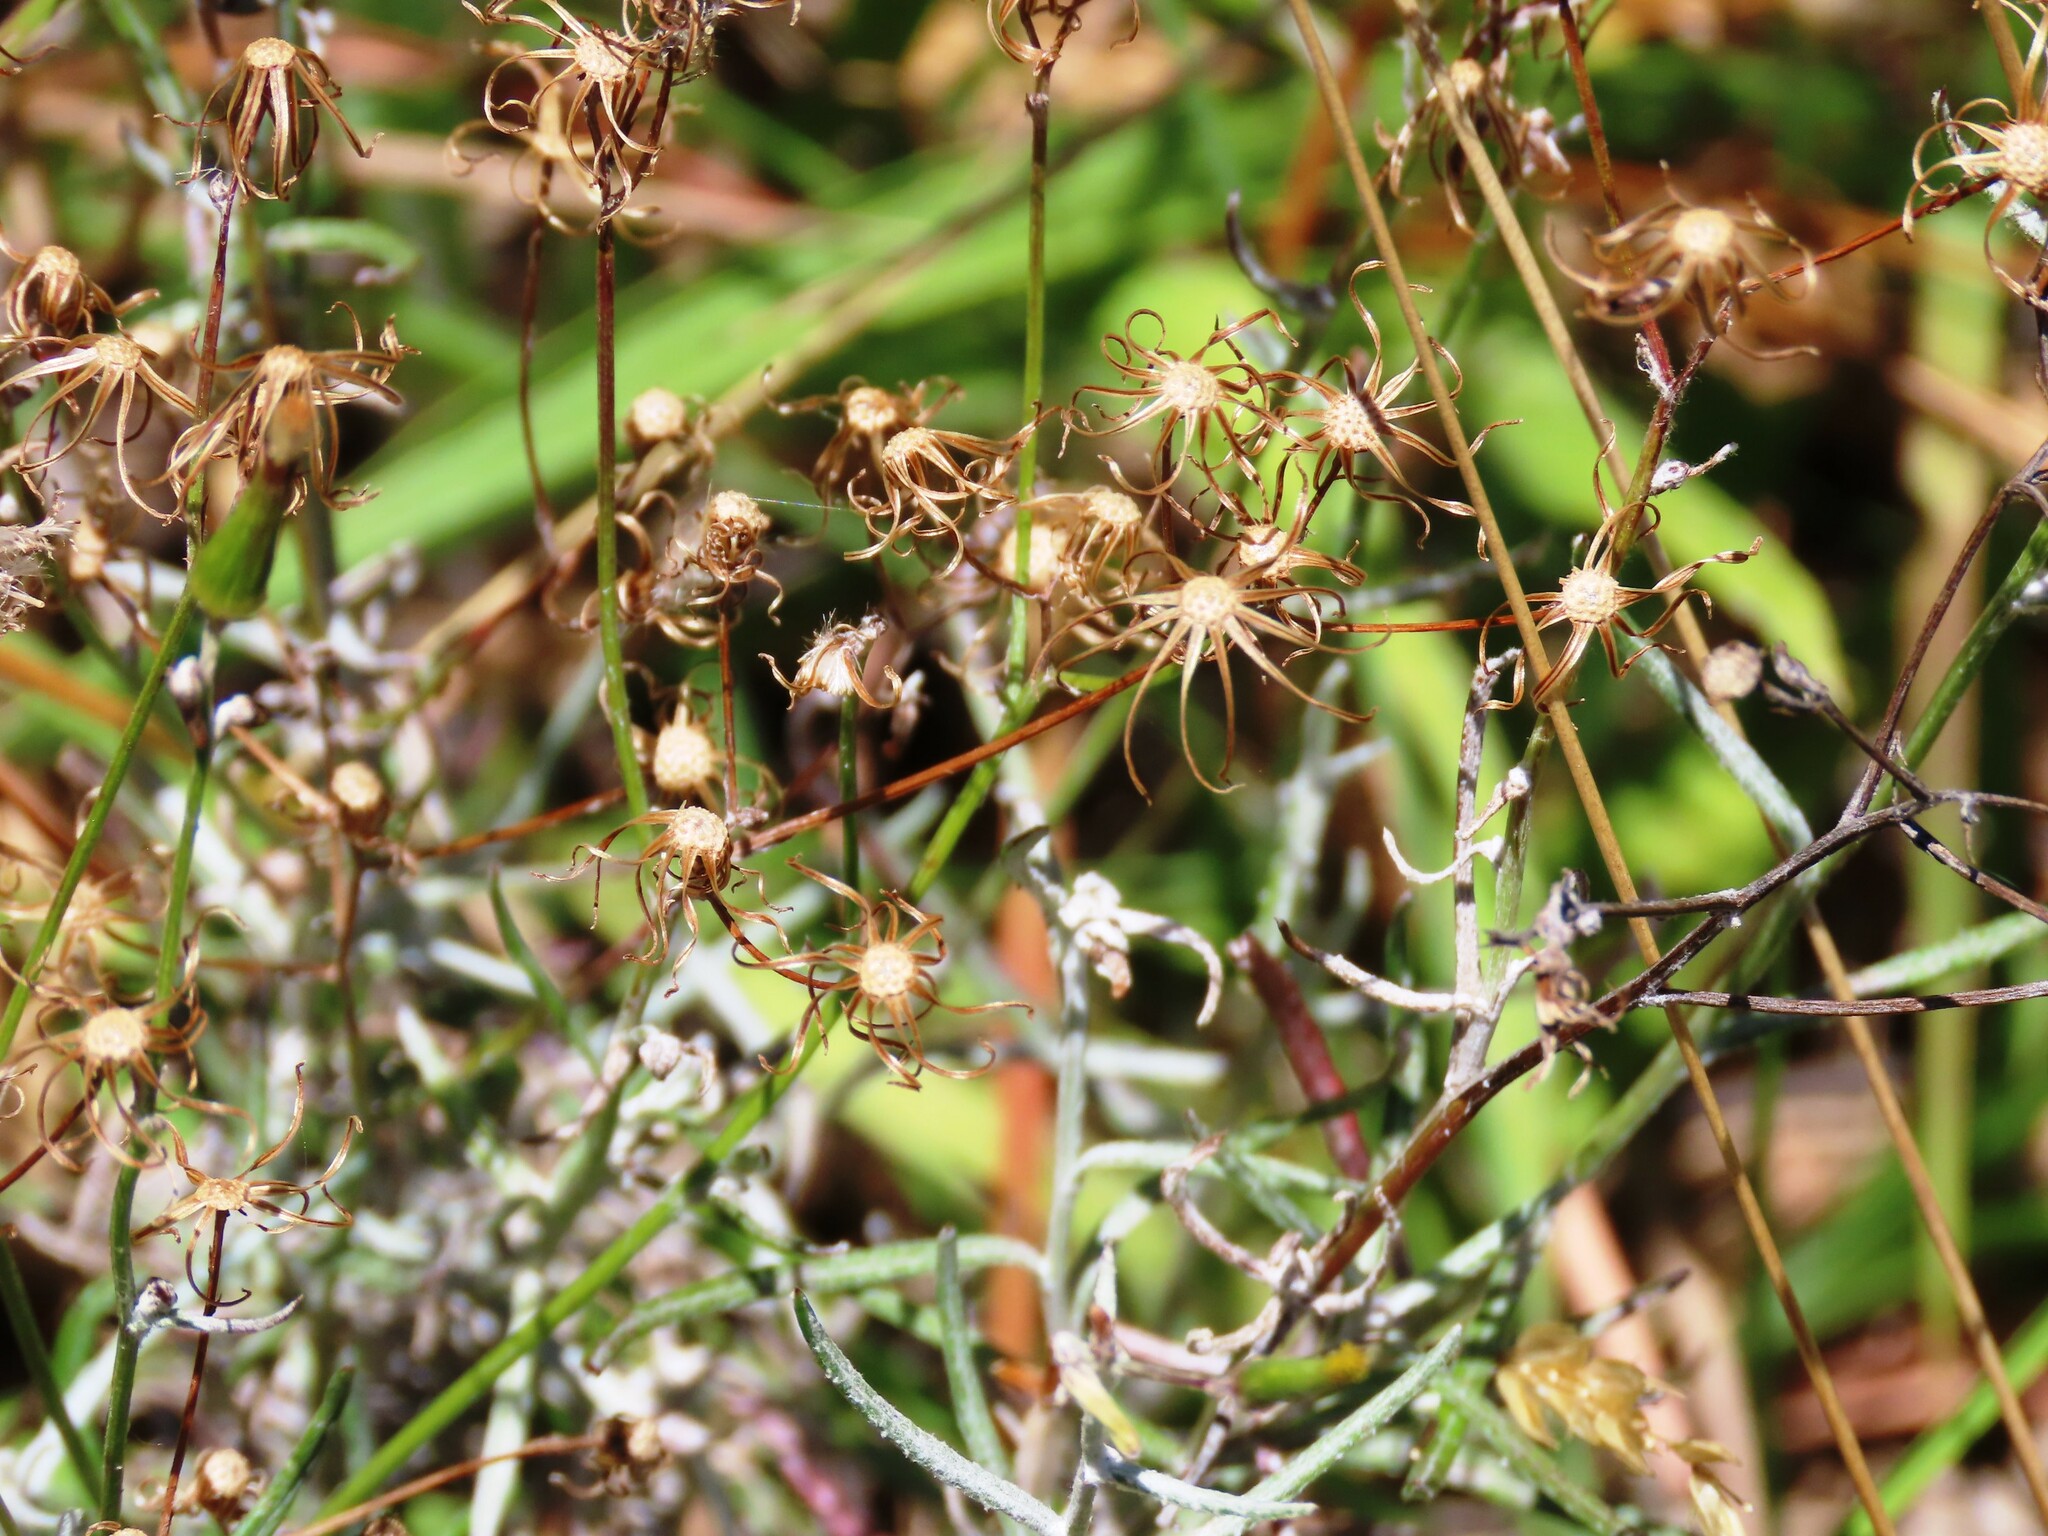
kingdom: Plantae
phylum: Tracheophyta
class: Magnoliopsida
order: Asterales
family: Asteraceae
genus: Senecio
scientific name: Senecio quadridentatus
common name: Cotton fireweed
